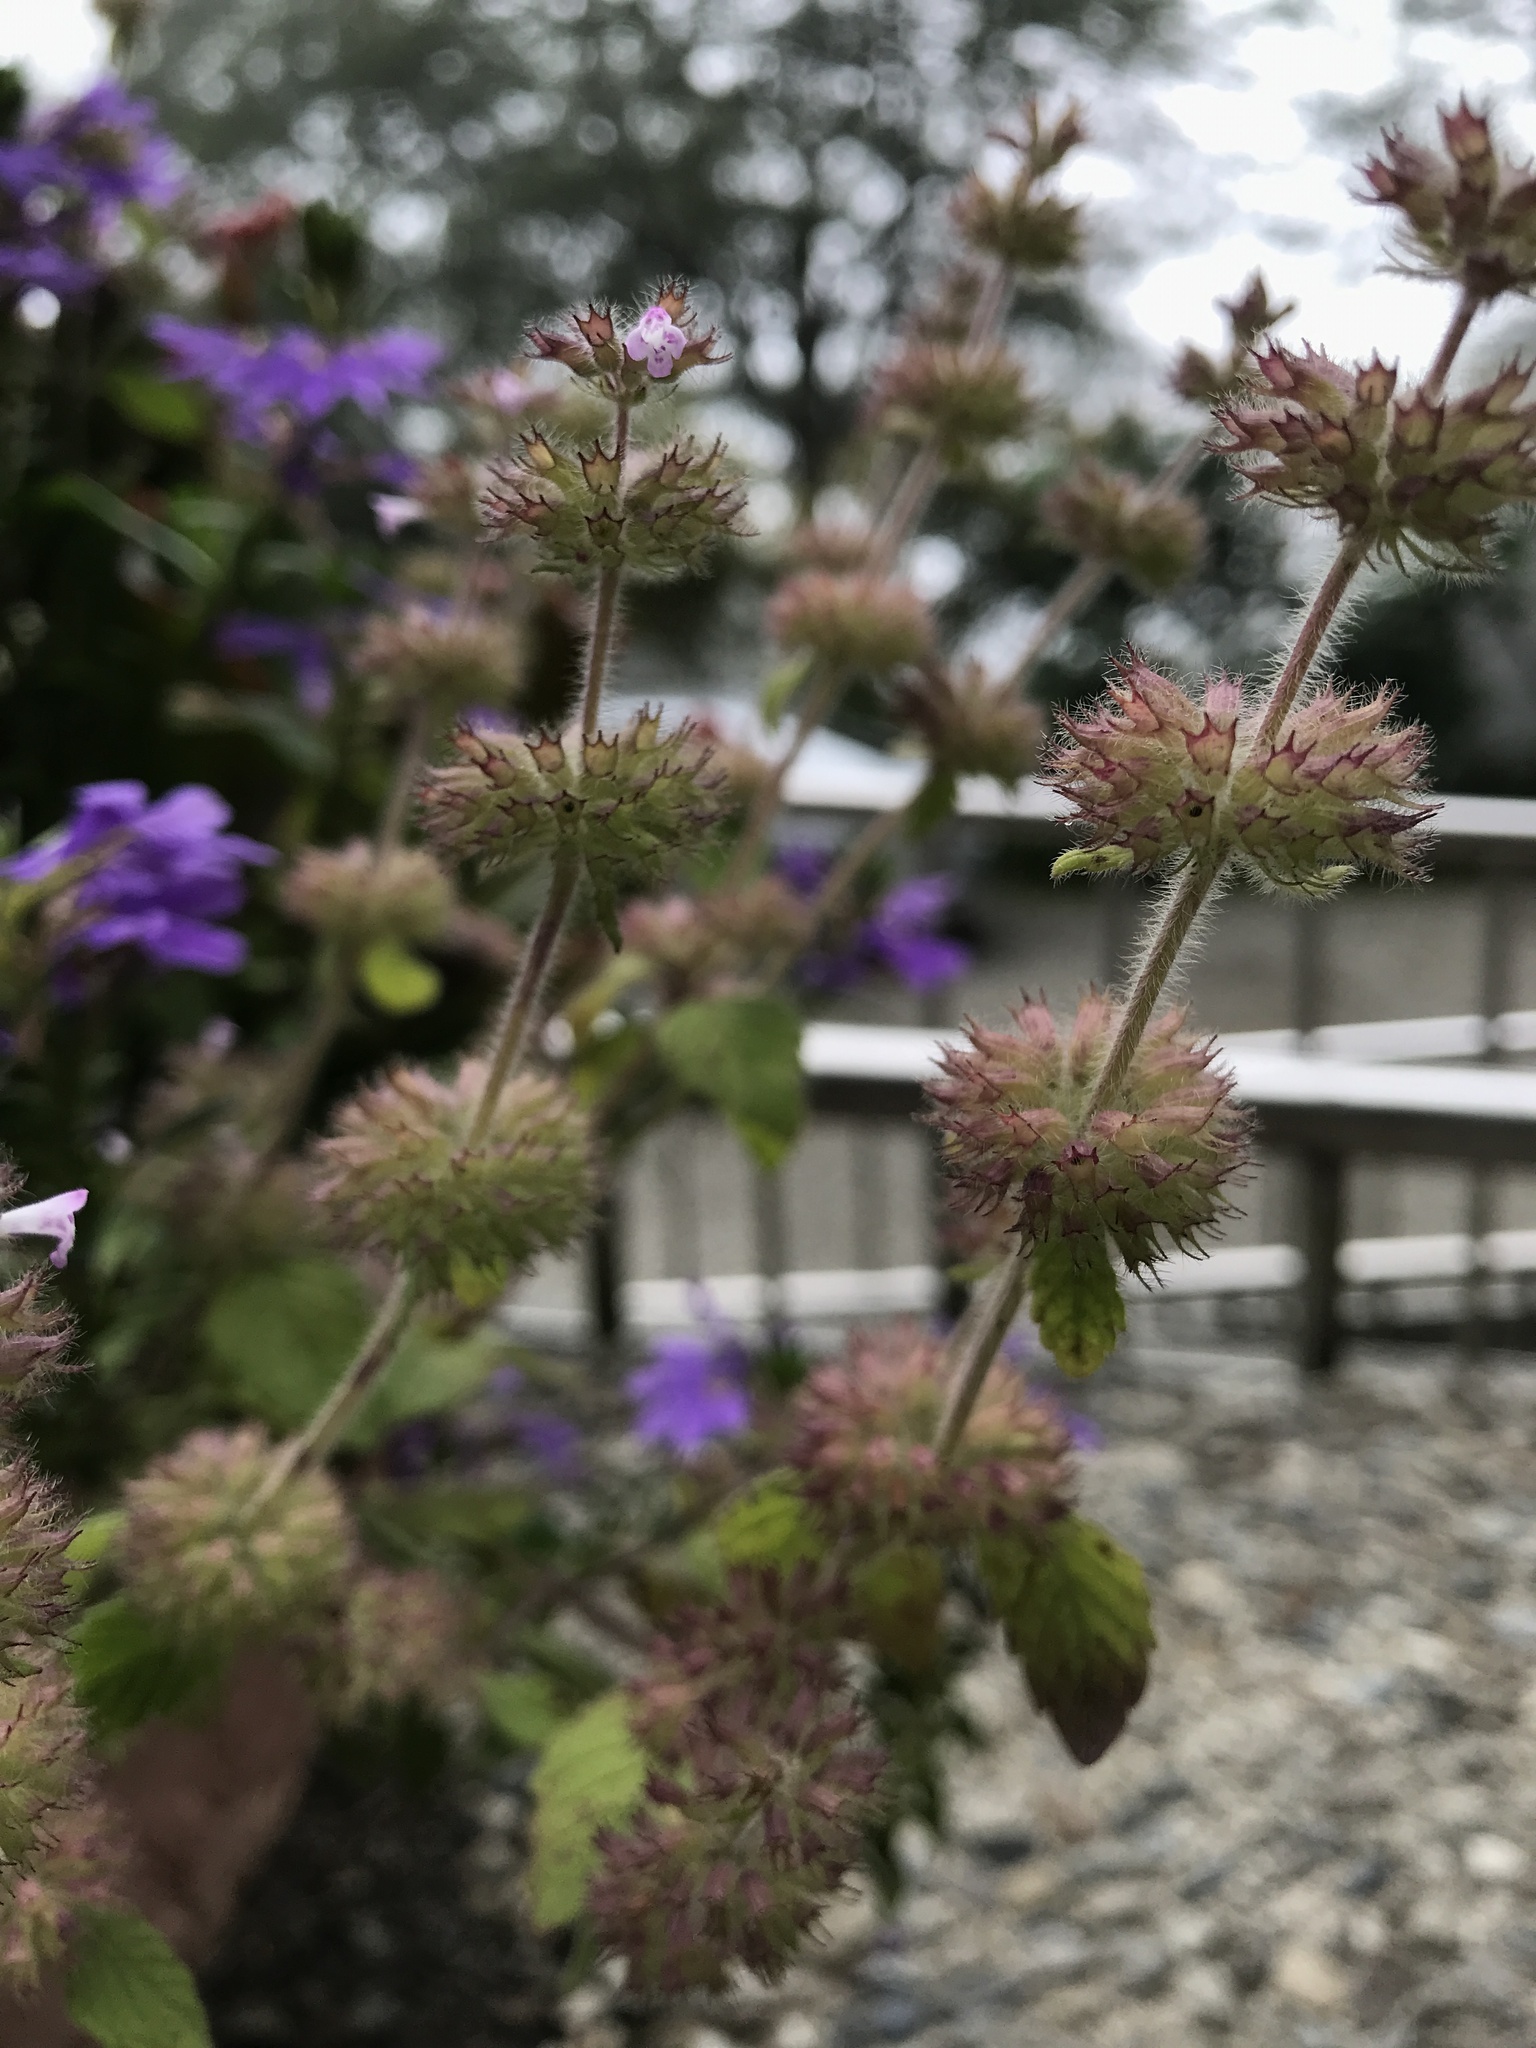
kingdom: Plantae
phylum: Tracheophyta
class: Magnoliopsida
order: Lamiales
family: Lamiaceae
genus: Clinopodium
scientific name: Clinopodium chinense
